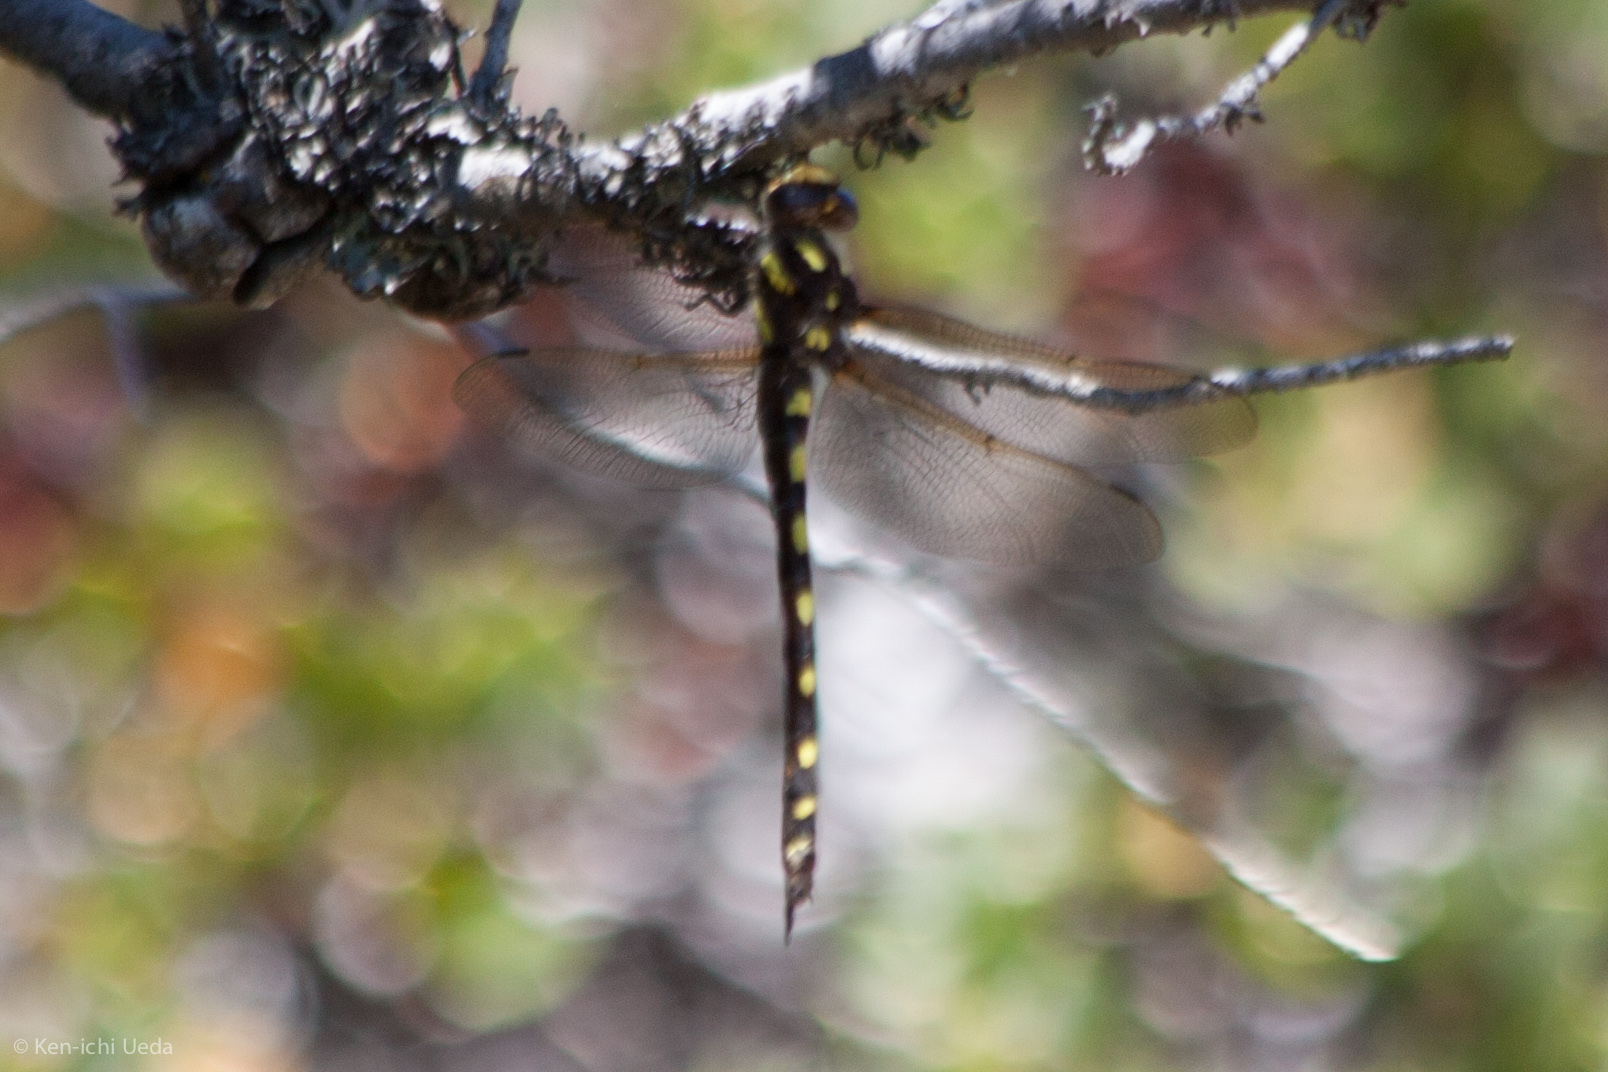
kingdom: Animalia
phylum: Arthropoda
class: Insecta
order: Odonata
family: Cordulegastridae
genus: Cordulegaster
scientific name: Cordulegaster dorsalis
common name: Pacific spiketail
